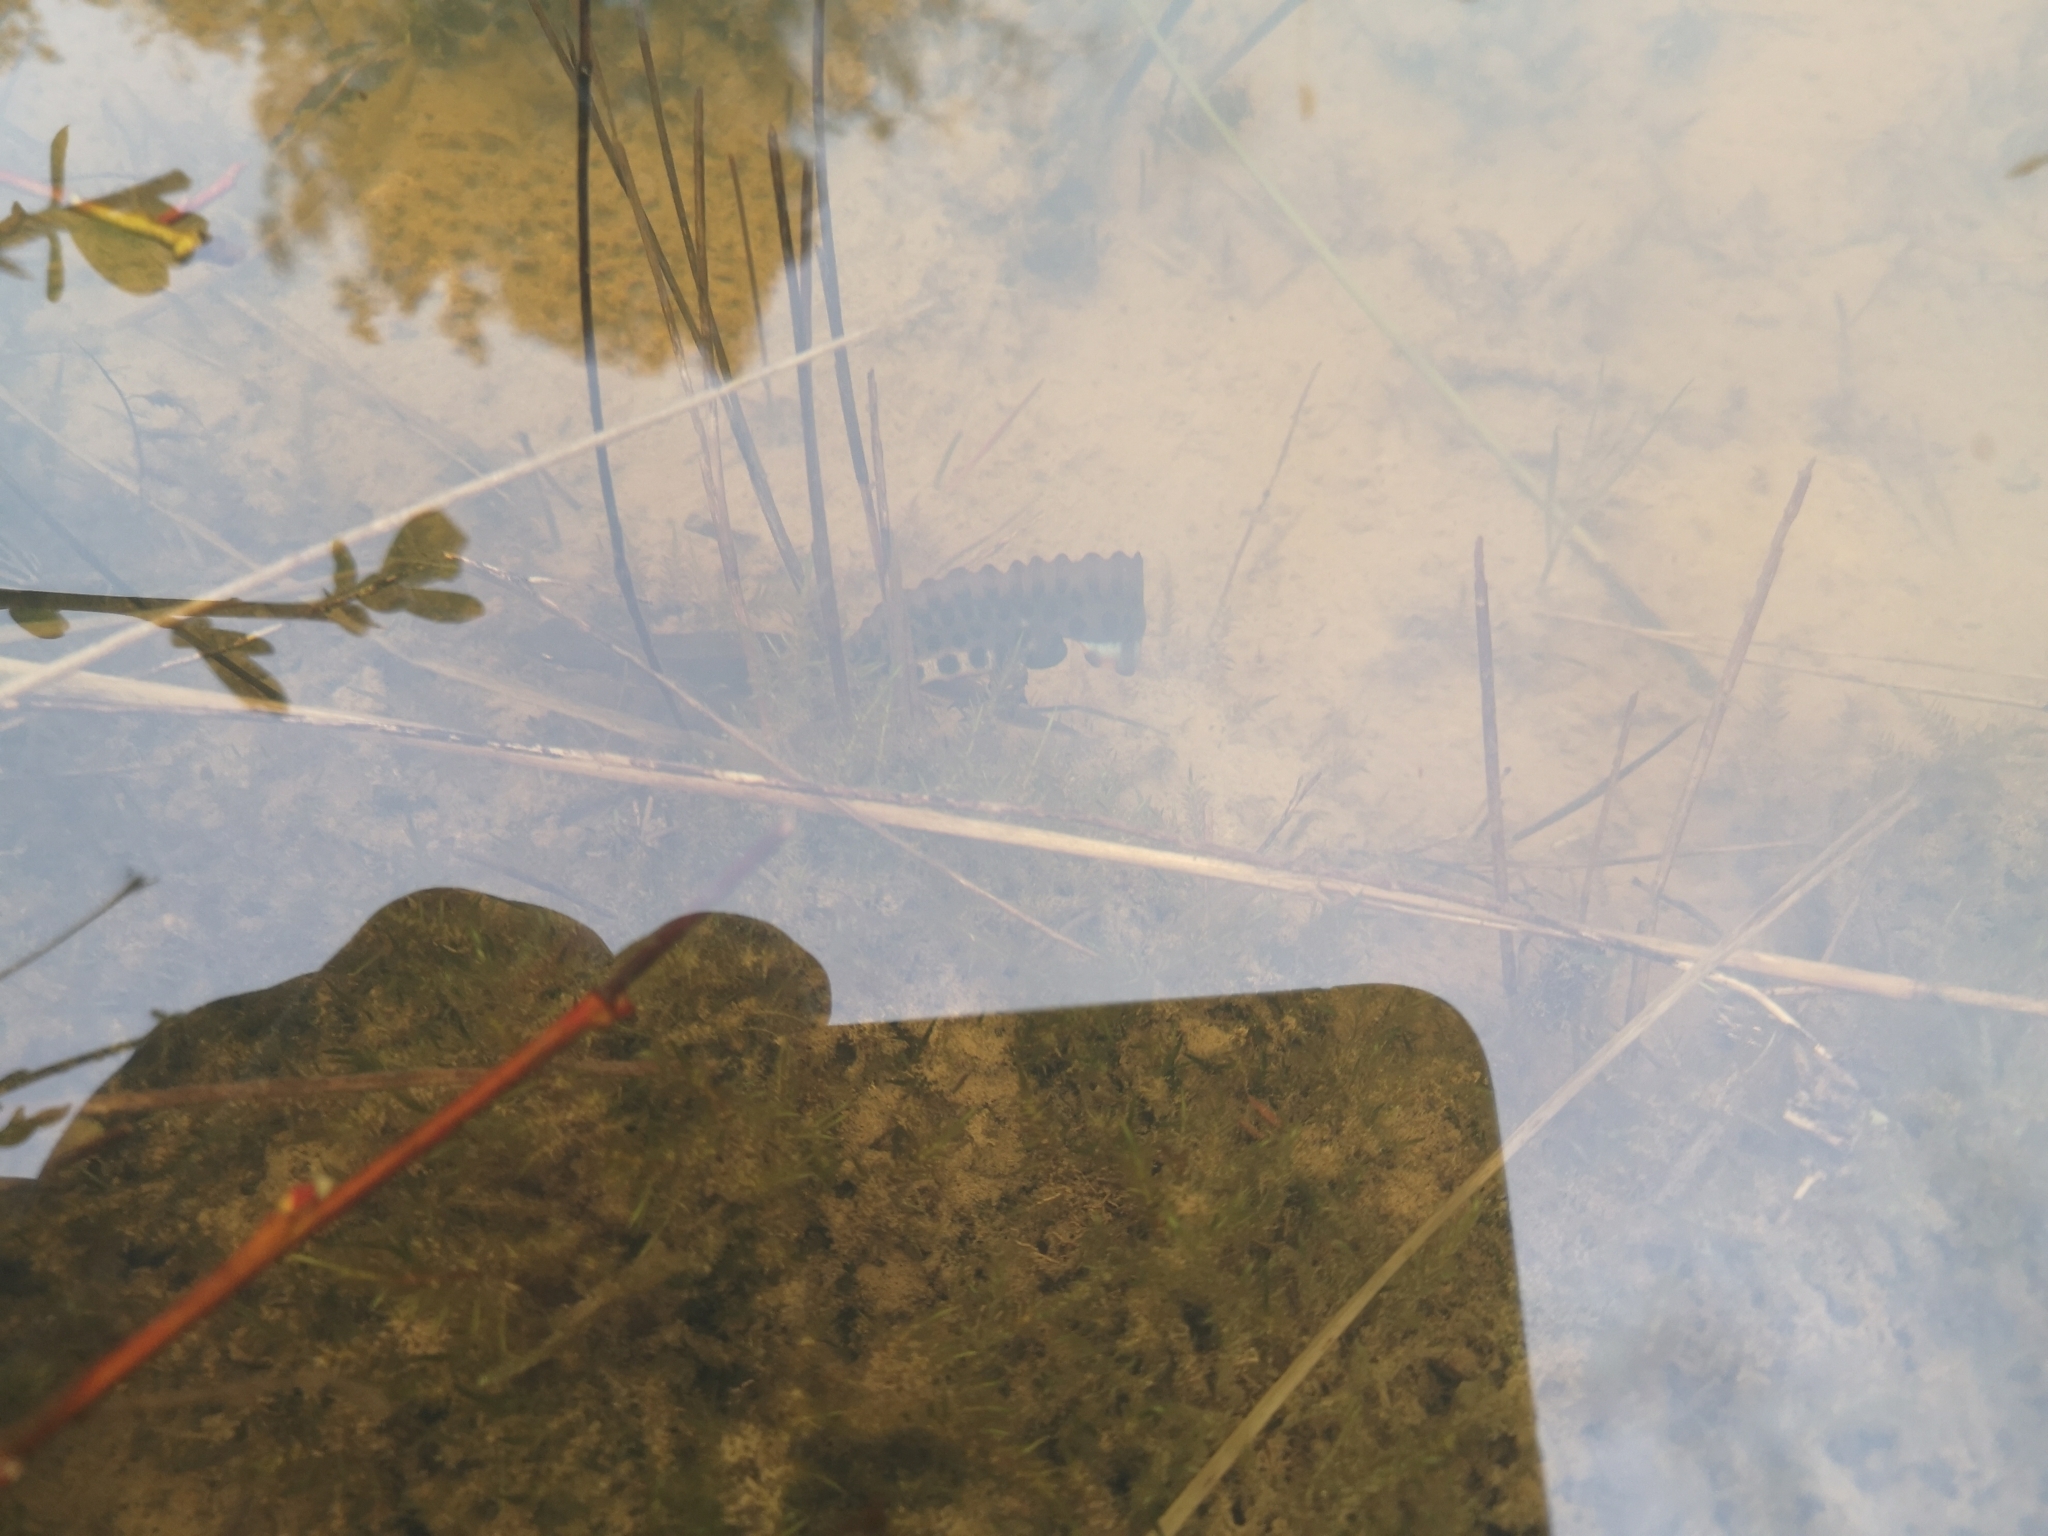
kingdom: Animalia
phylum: Chordata
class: Amphibia
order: Caudata
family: Salamandridae
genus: Lissotriton
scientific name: Lissotriton vulgaris
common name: Smooth newt
